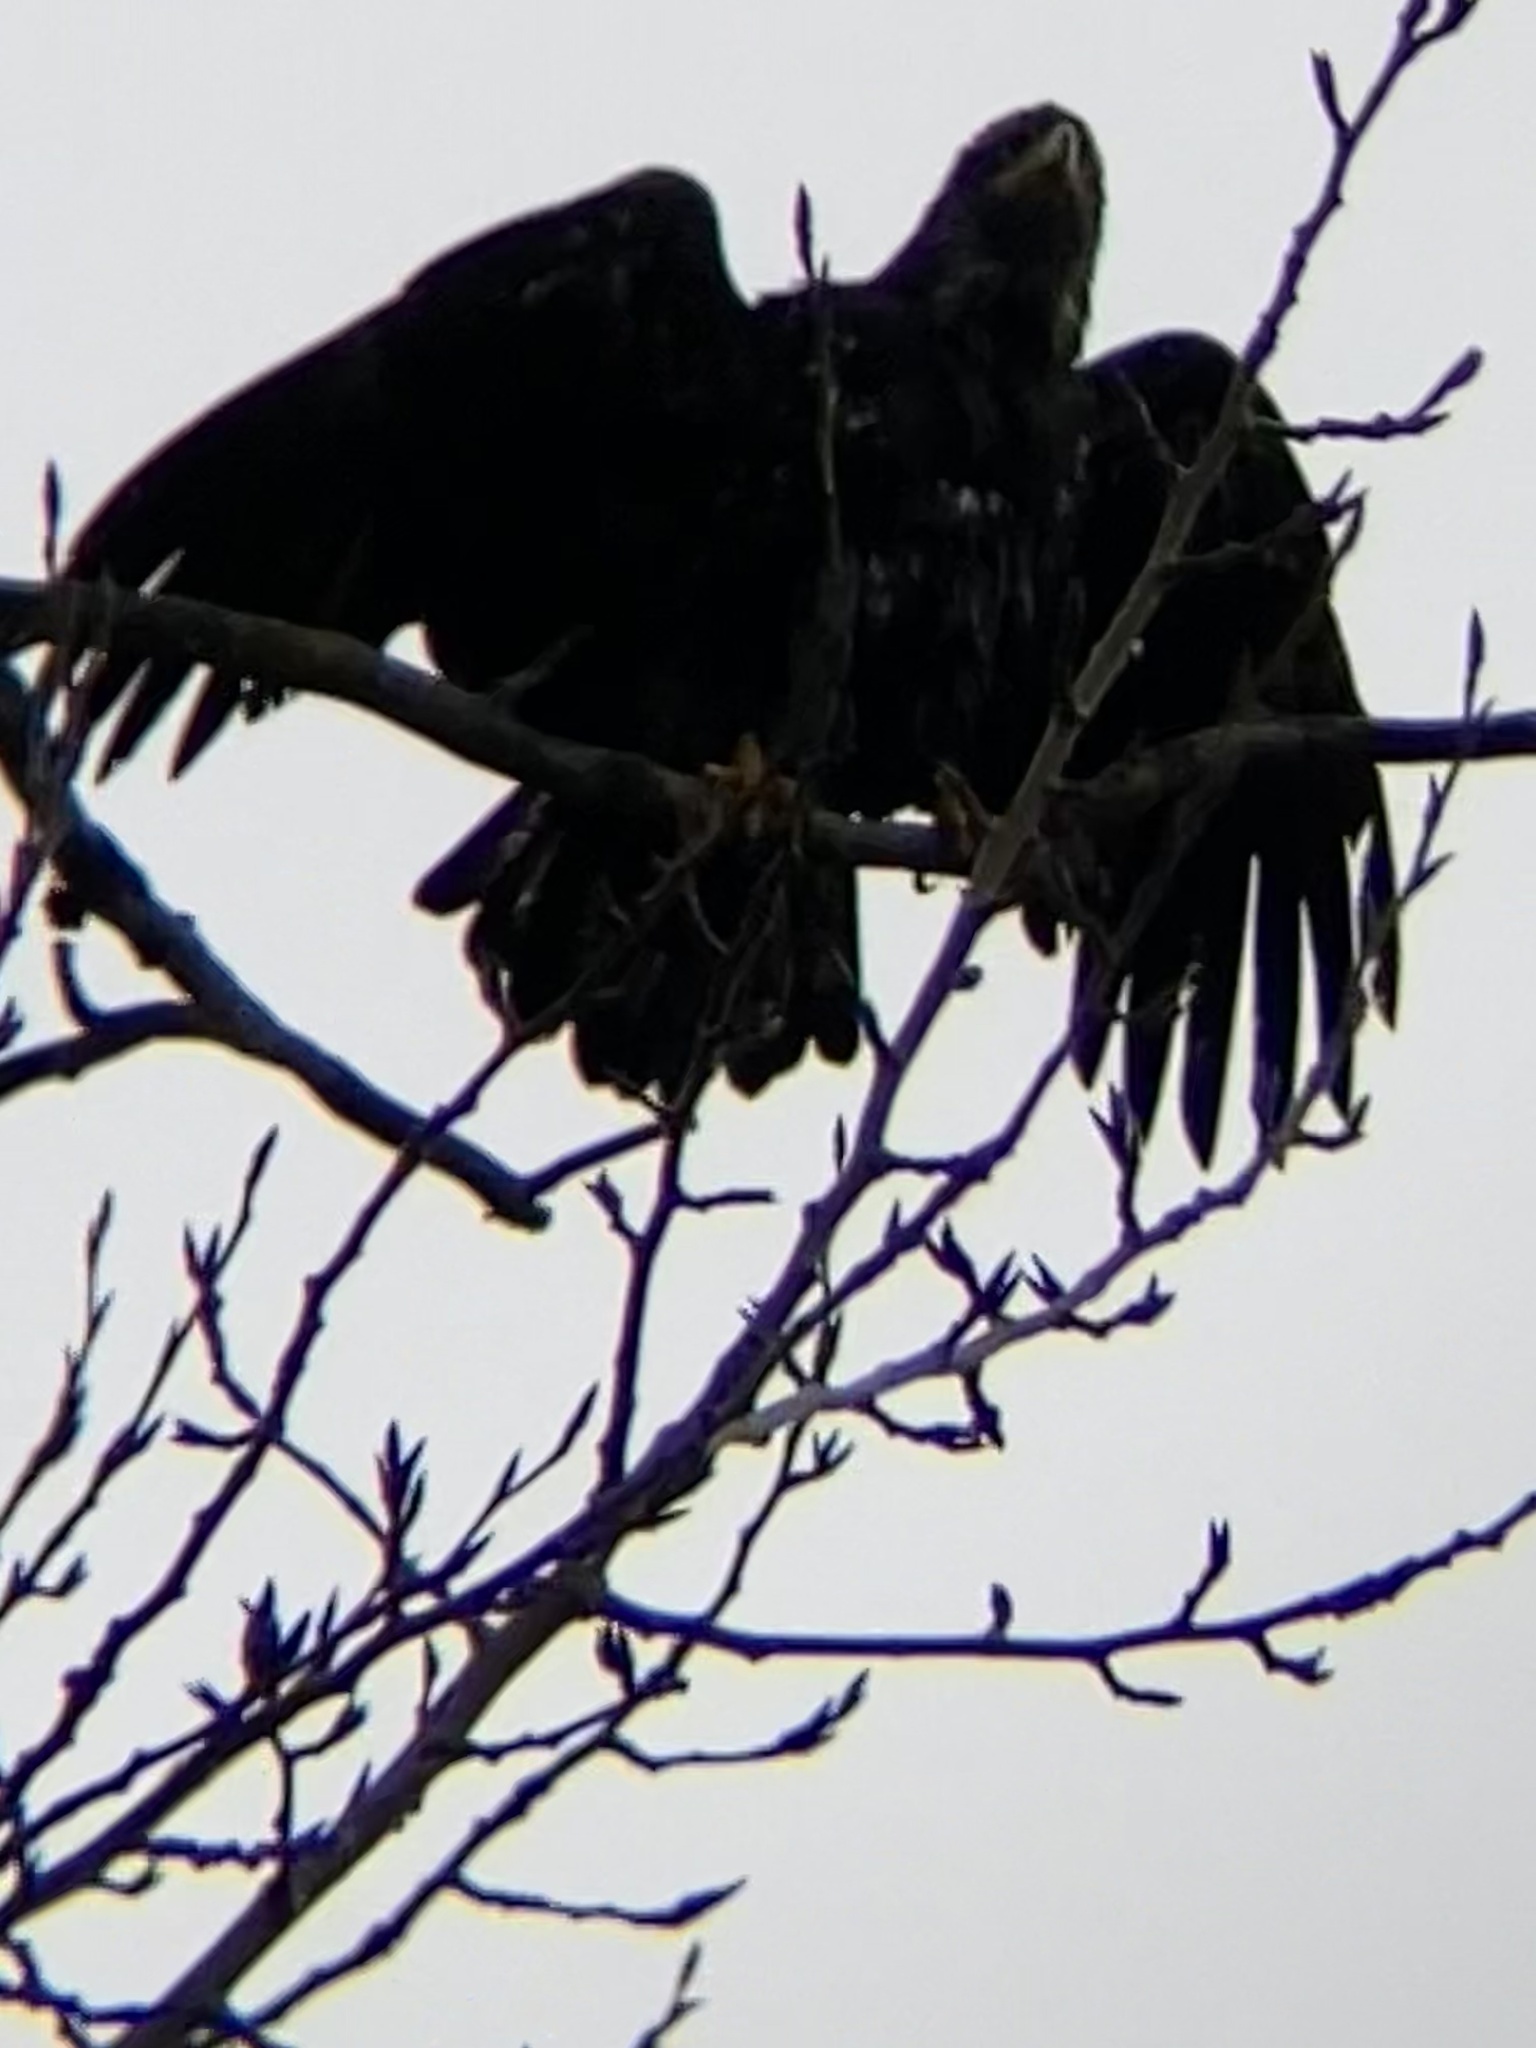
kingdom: Animalia
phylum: Chordata
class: Aves
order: Accipitriformes
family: Accipitridae
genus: Haliaeetus
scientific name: Haliaeetus leucocephalus
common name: Bald eagle
